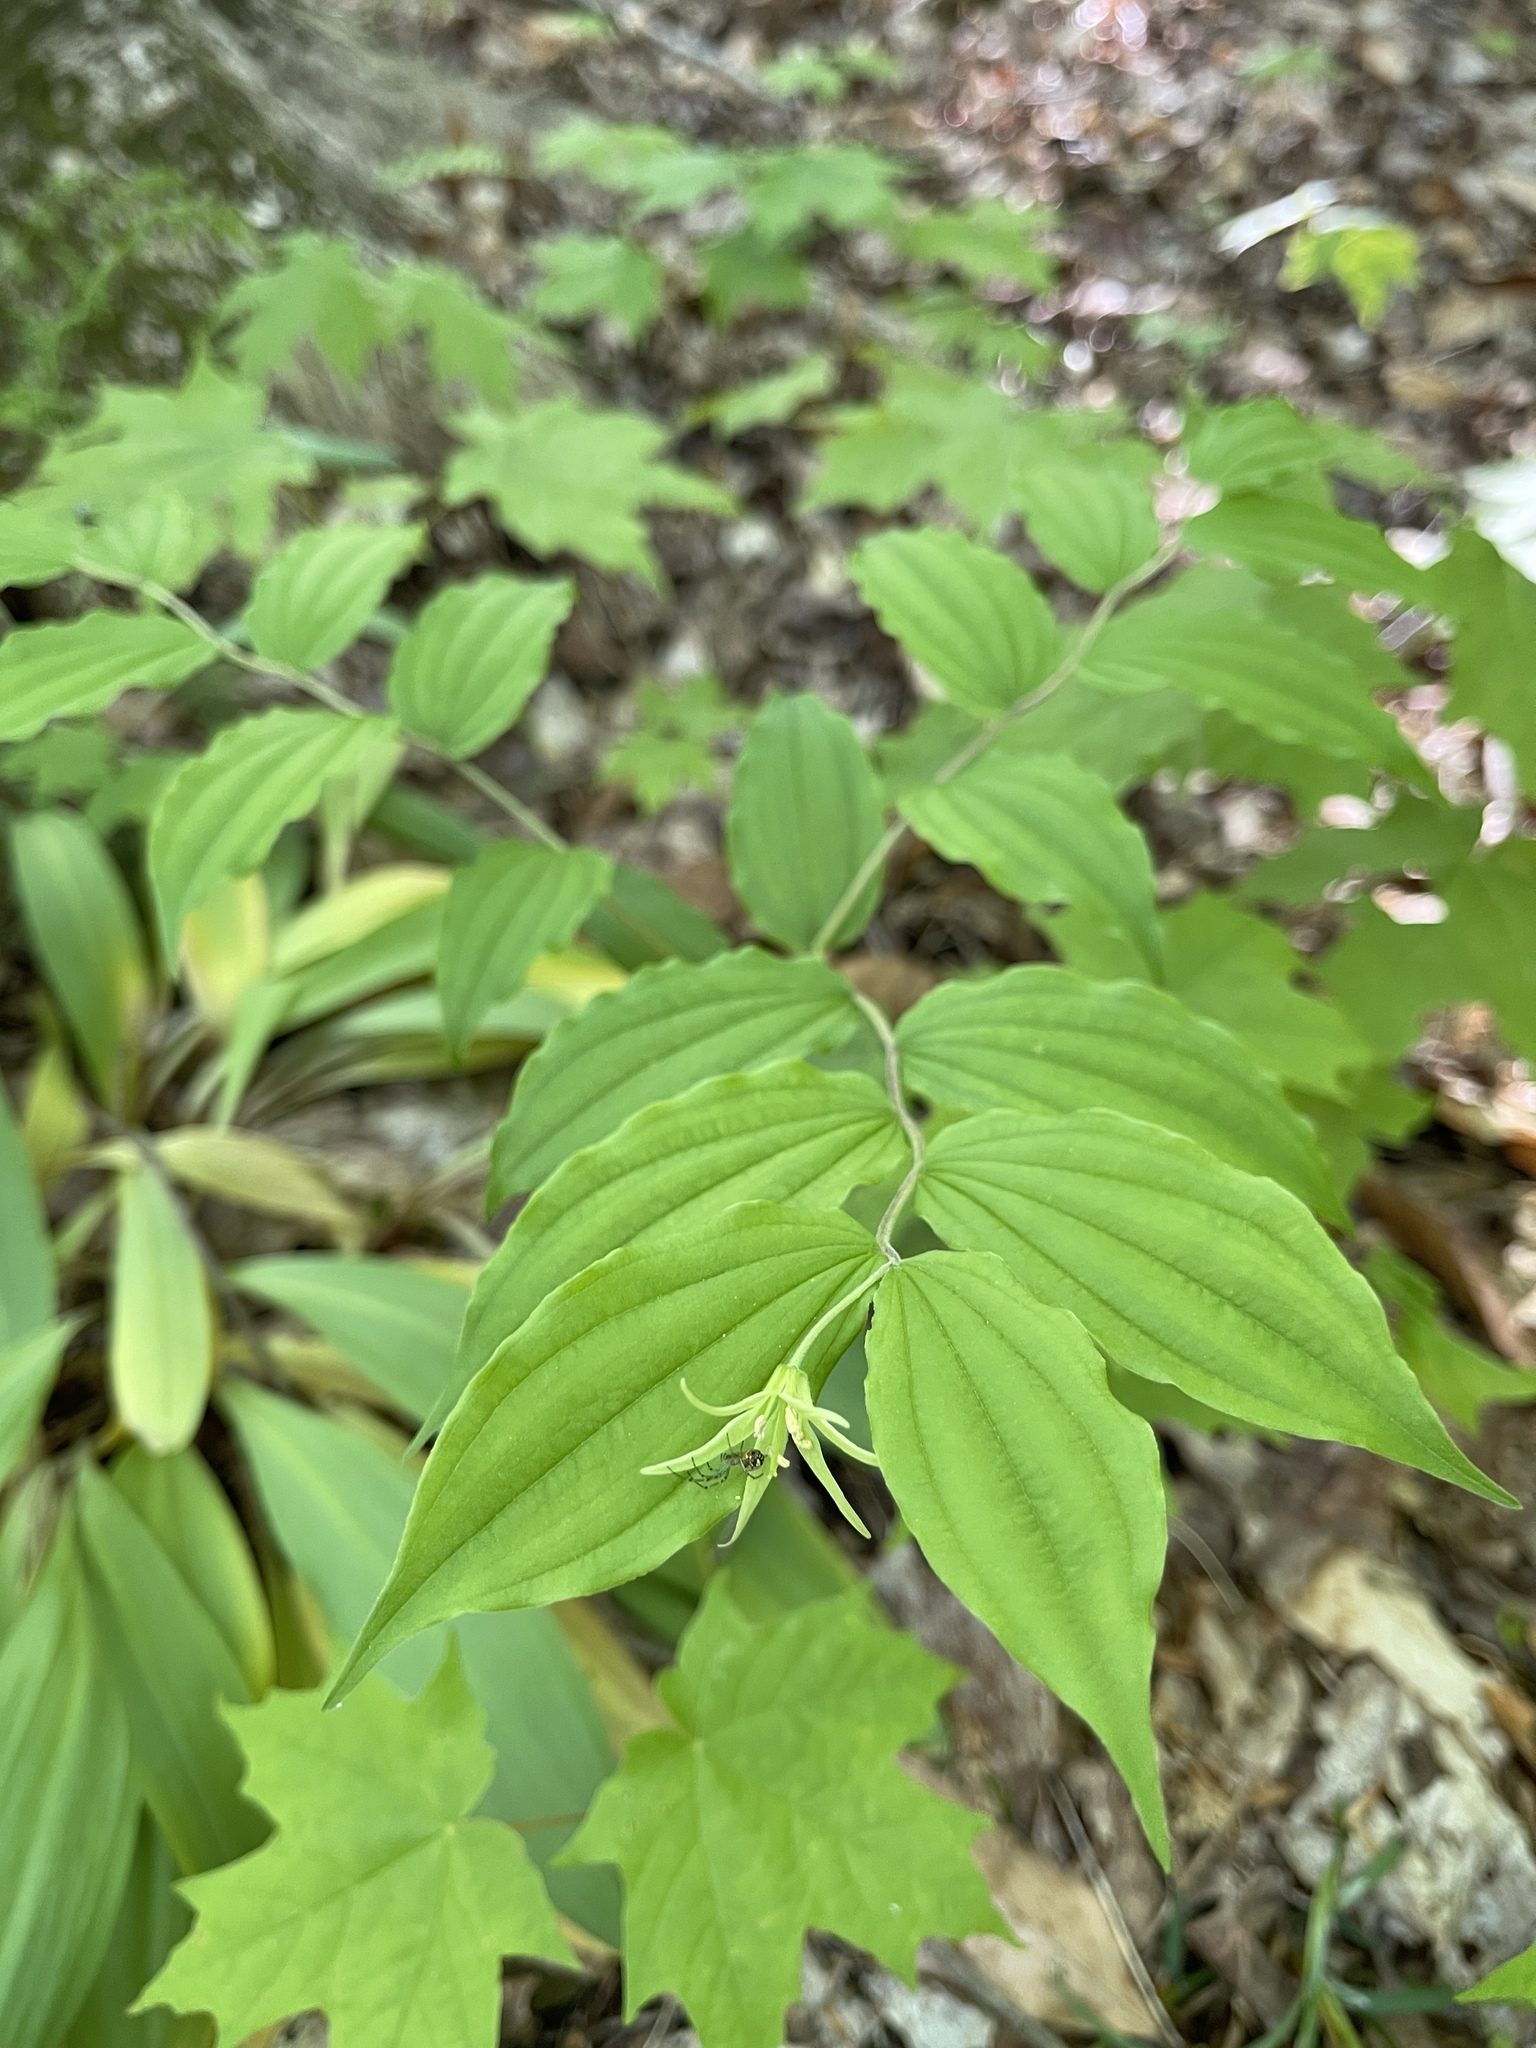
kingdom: Plantae
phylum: Tracheophyta
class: Liliopsida
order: Liliales
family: Liliaceae
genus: Prosartes
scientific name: Prosartes lanuginosa
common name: Hairy mandarin
